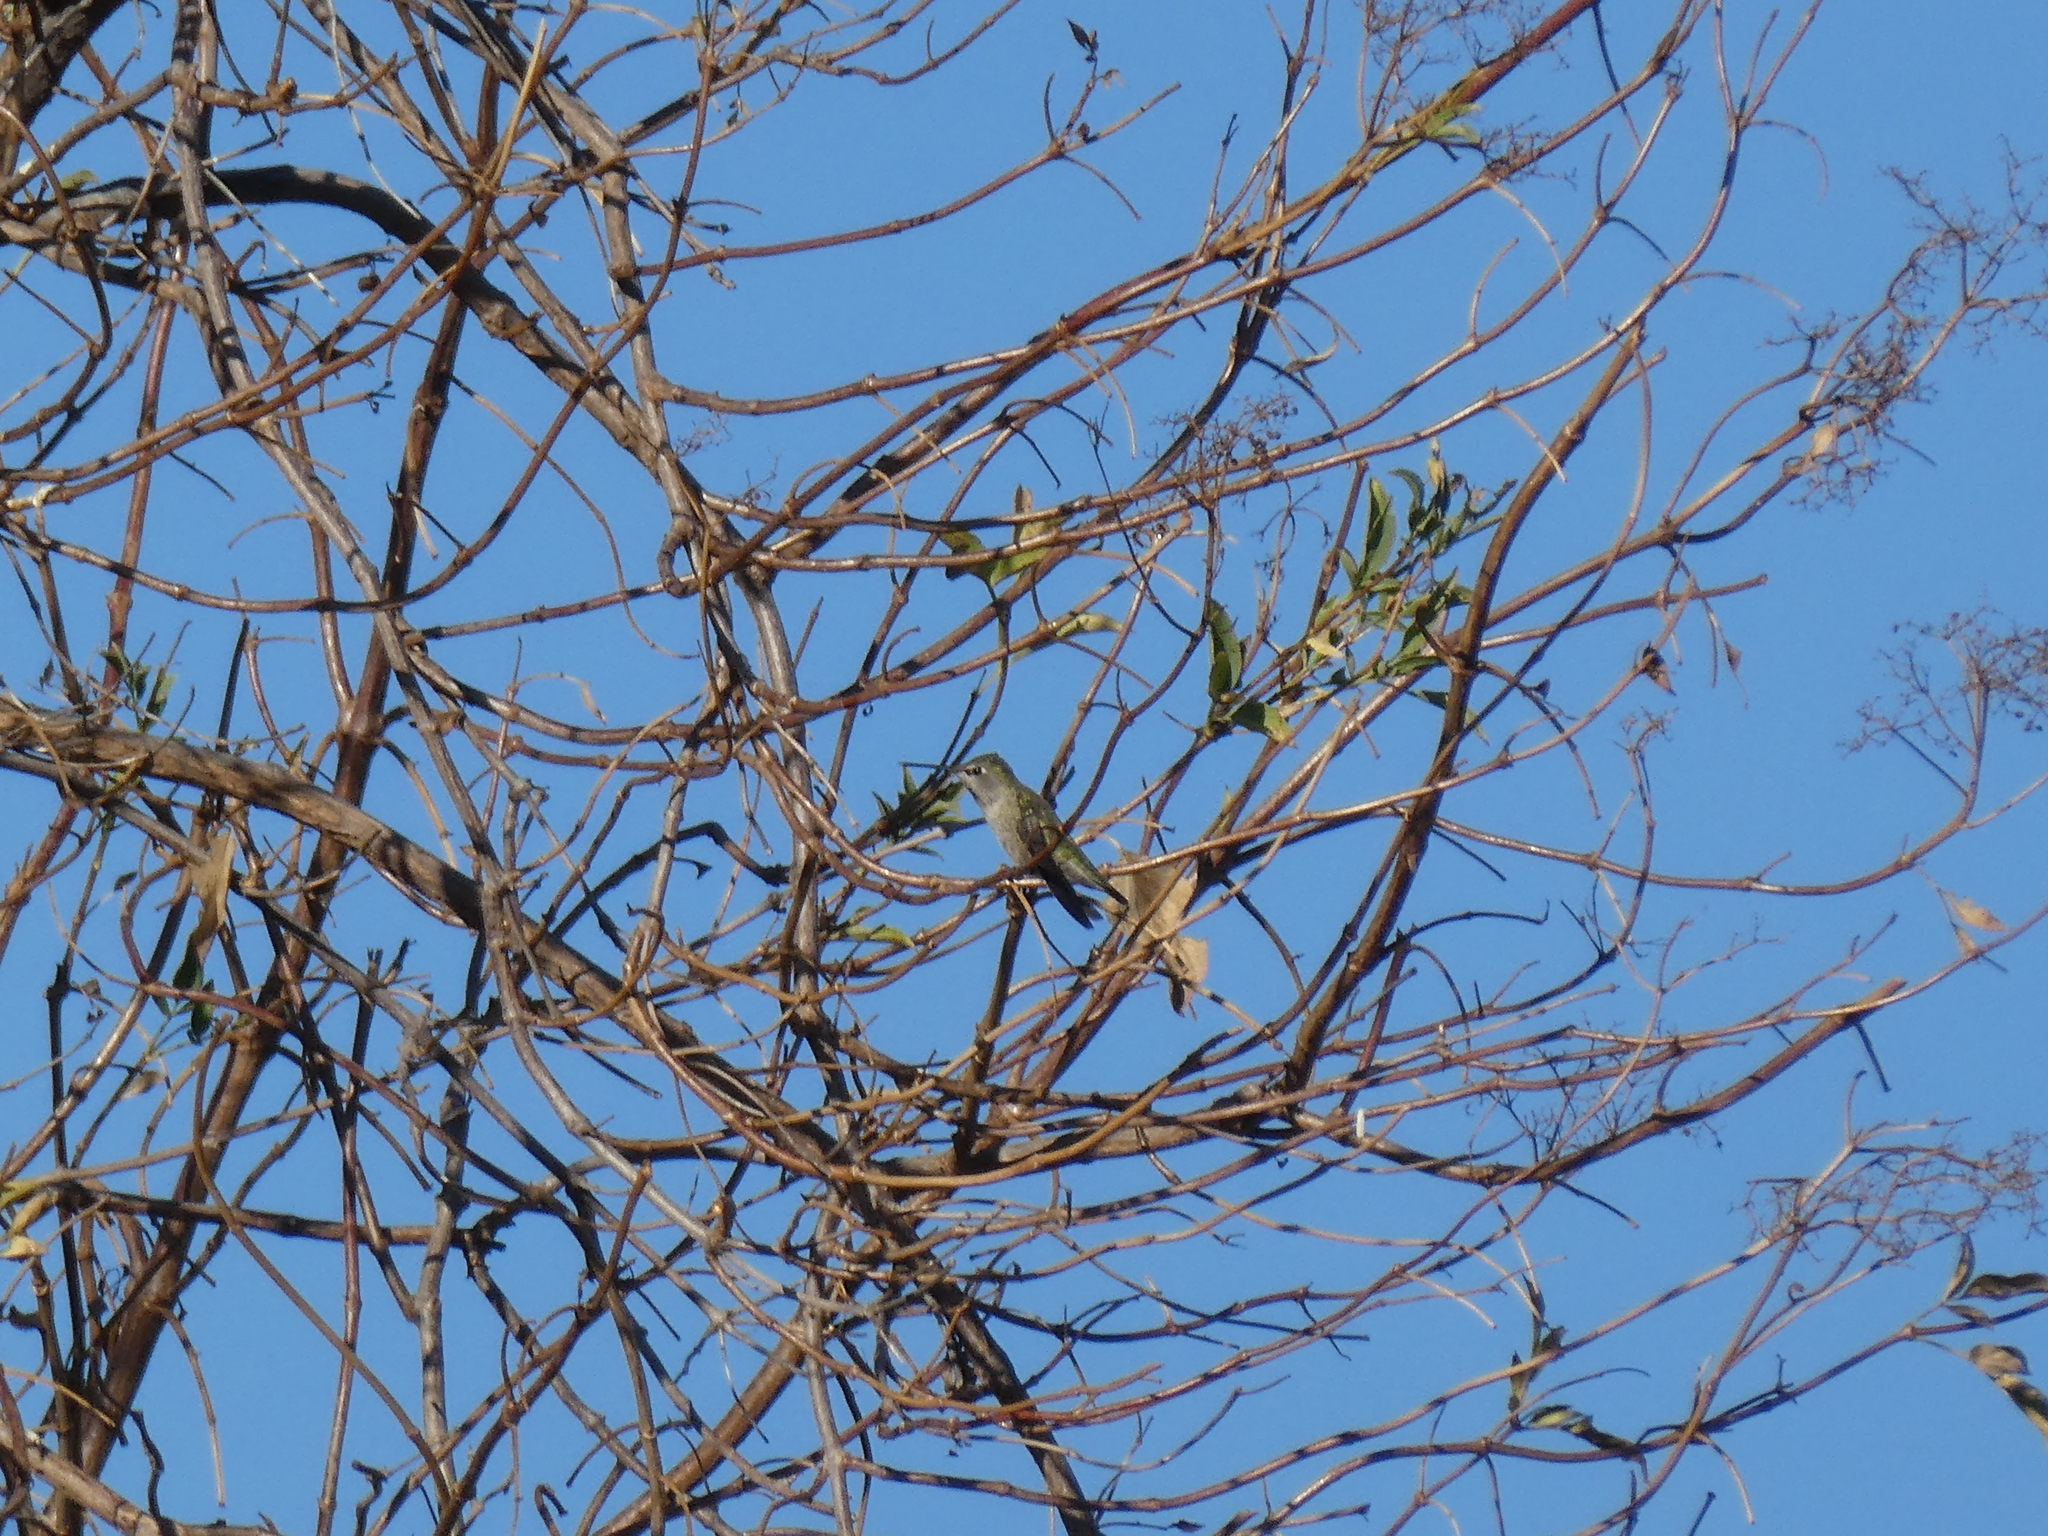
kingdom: Animalia
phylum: Chordata
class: Aves
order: Apodiformes
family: Trochilidae
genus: Calypte
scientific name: Calypte anna
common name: Anna's hummingbird
